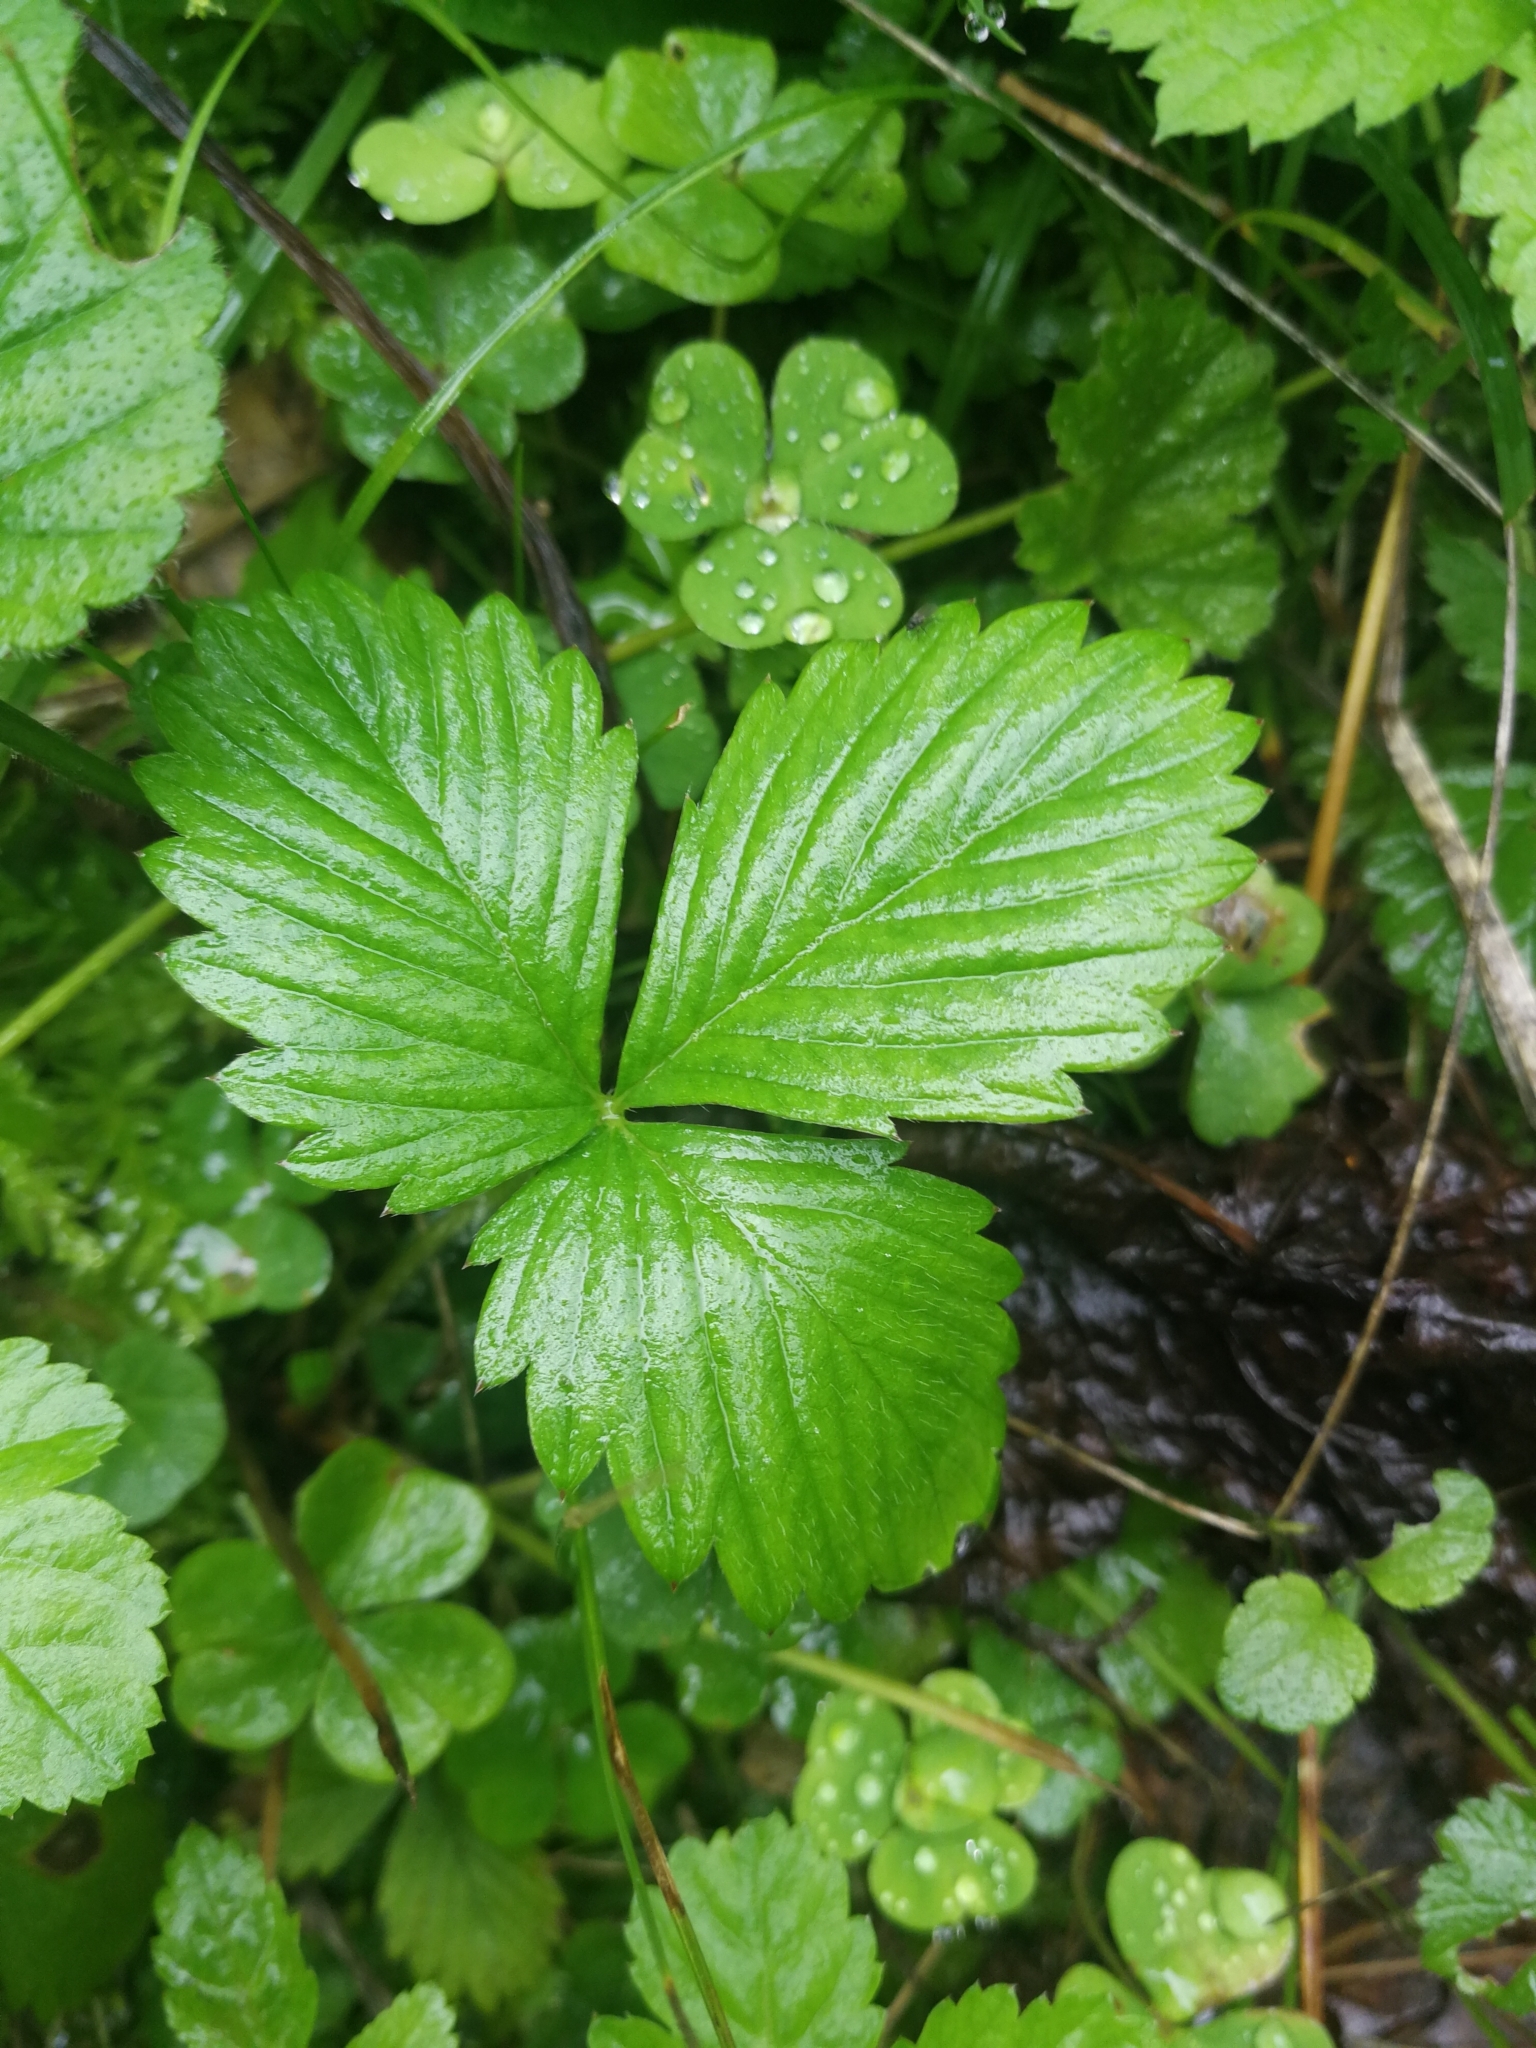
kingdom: Plantae
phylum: Tracheophyta
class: Magnoliopsida
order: Rosales
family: Rosaceae
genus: Fragaria
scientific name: Fragaria vesca
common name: Wild strawberry
